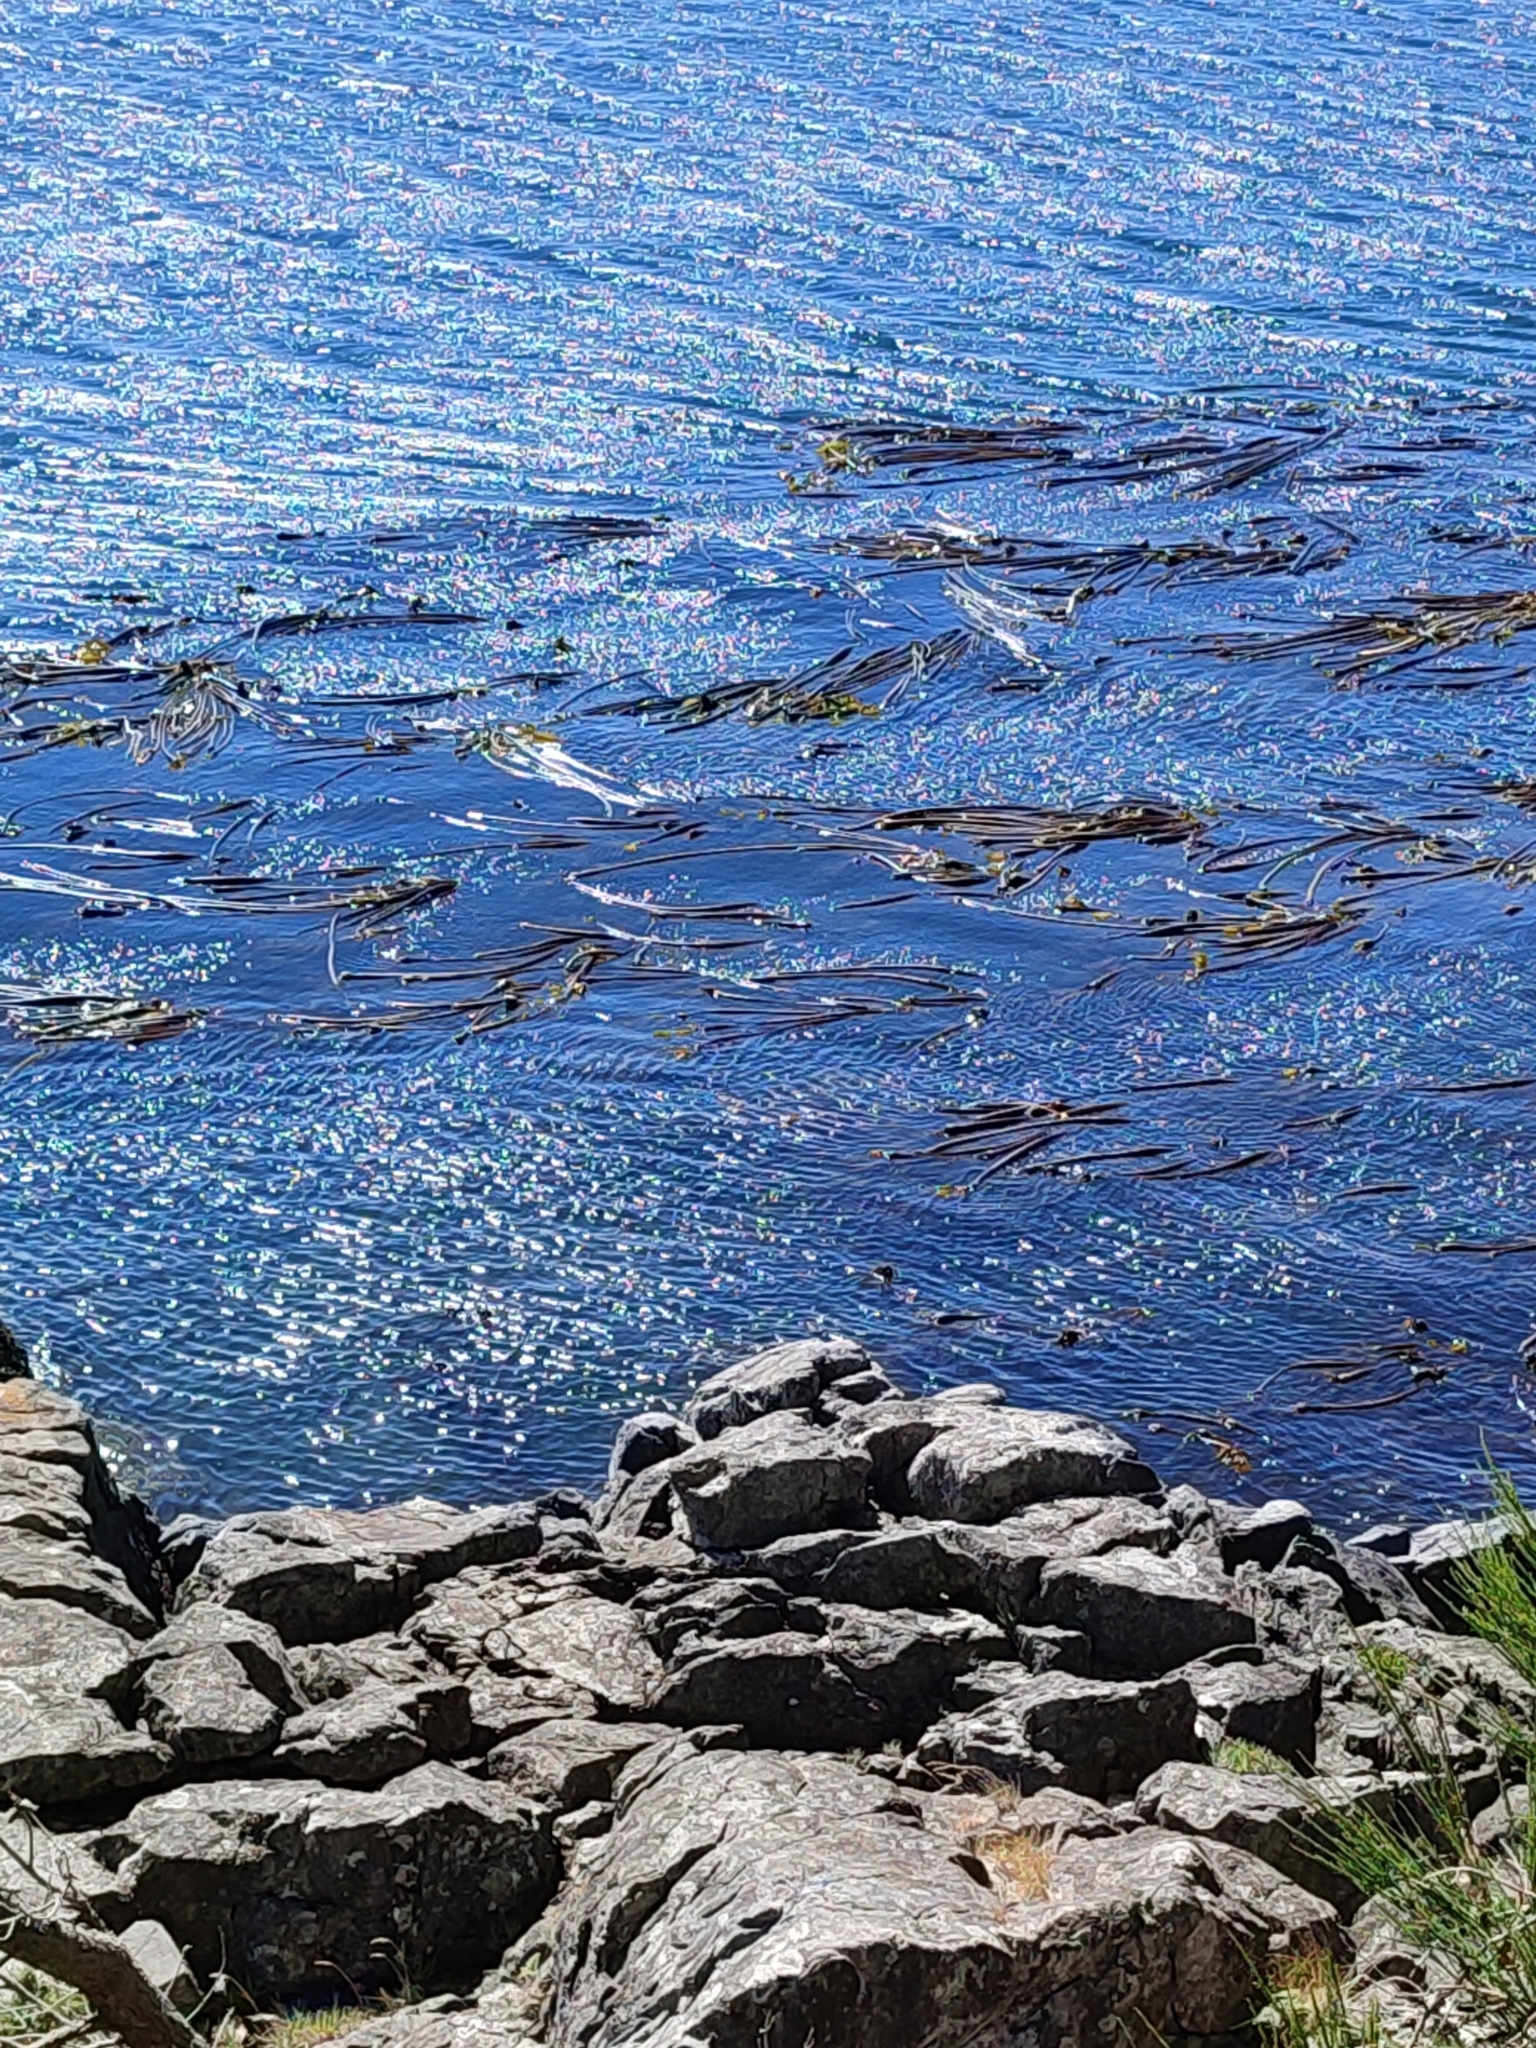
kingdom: Chromista
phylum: Ochrophyta
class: Phaeophyceae
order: Laminariales
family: Laminariaceae
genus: Nereocystis
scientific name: Nereocystis luetkeana
